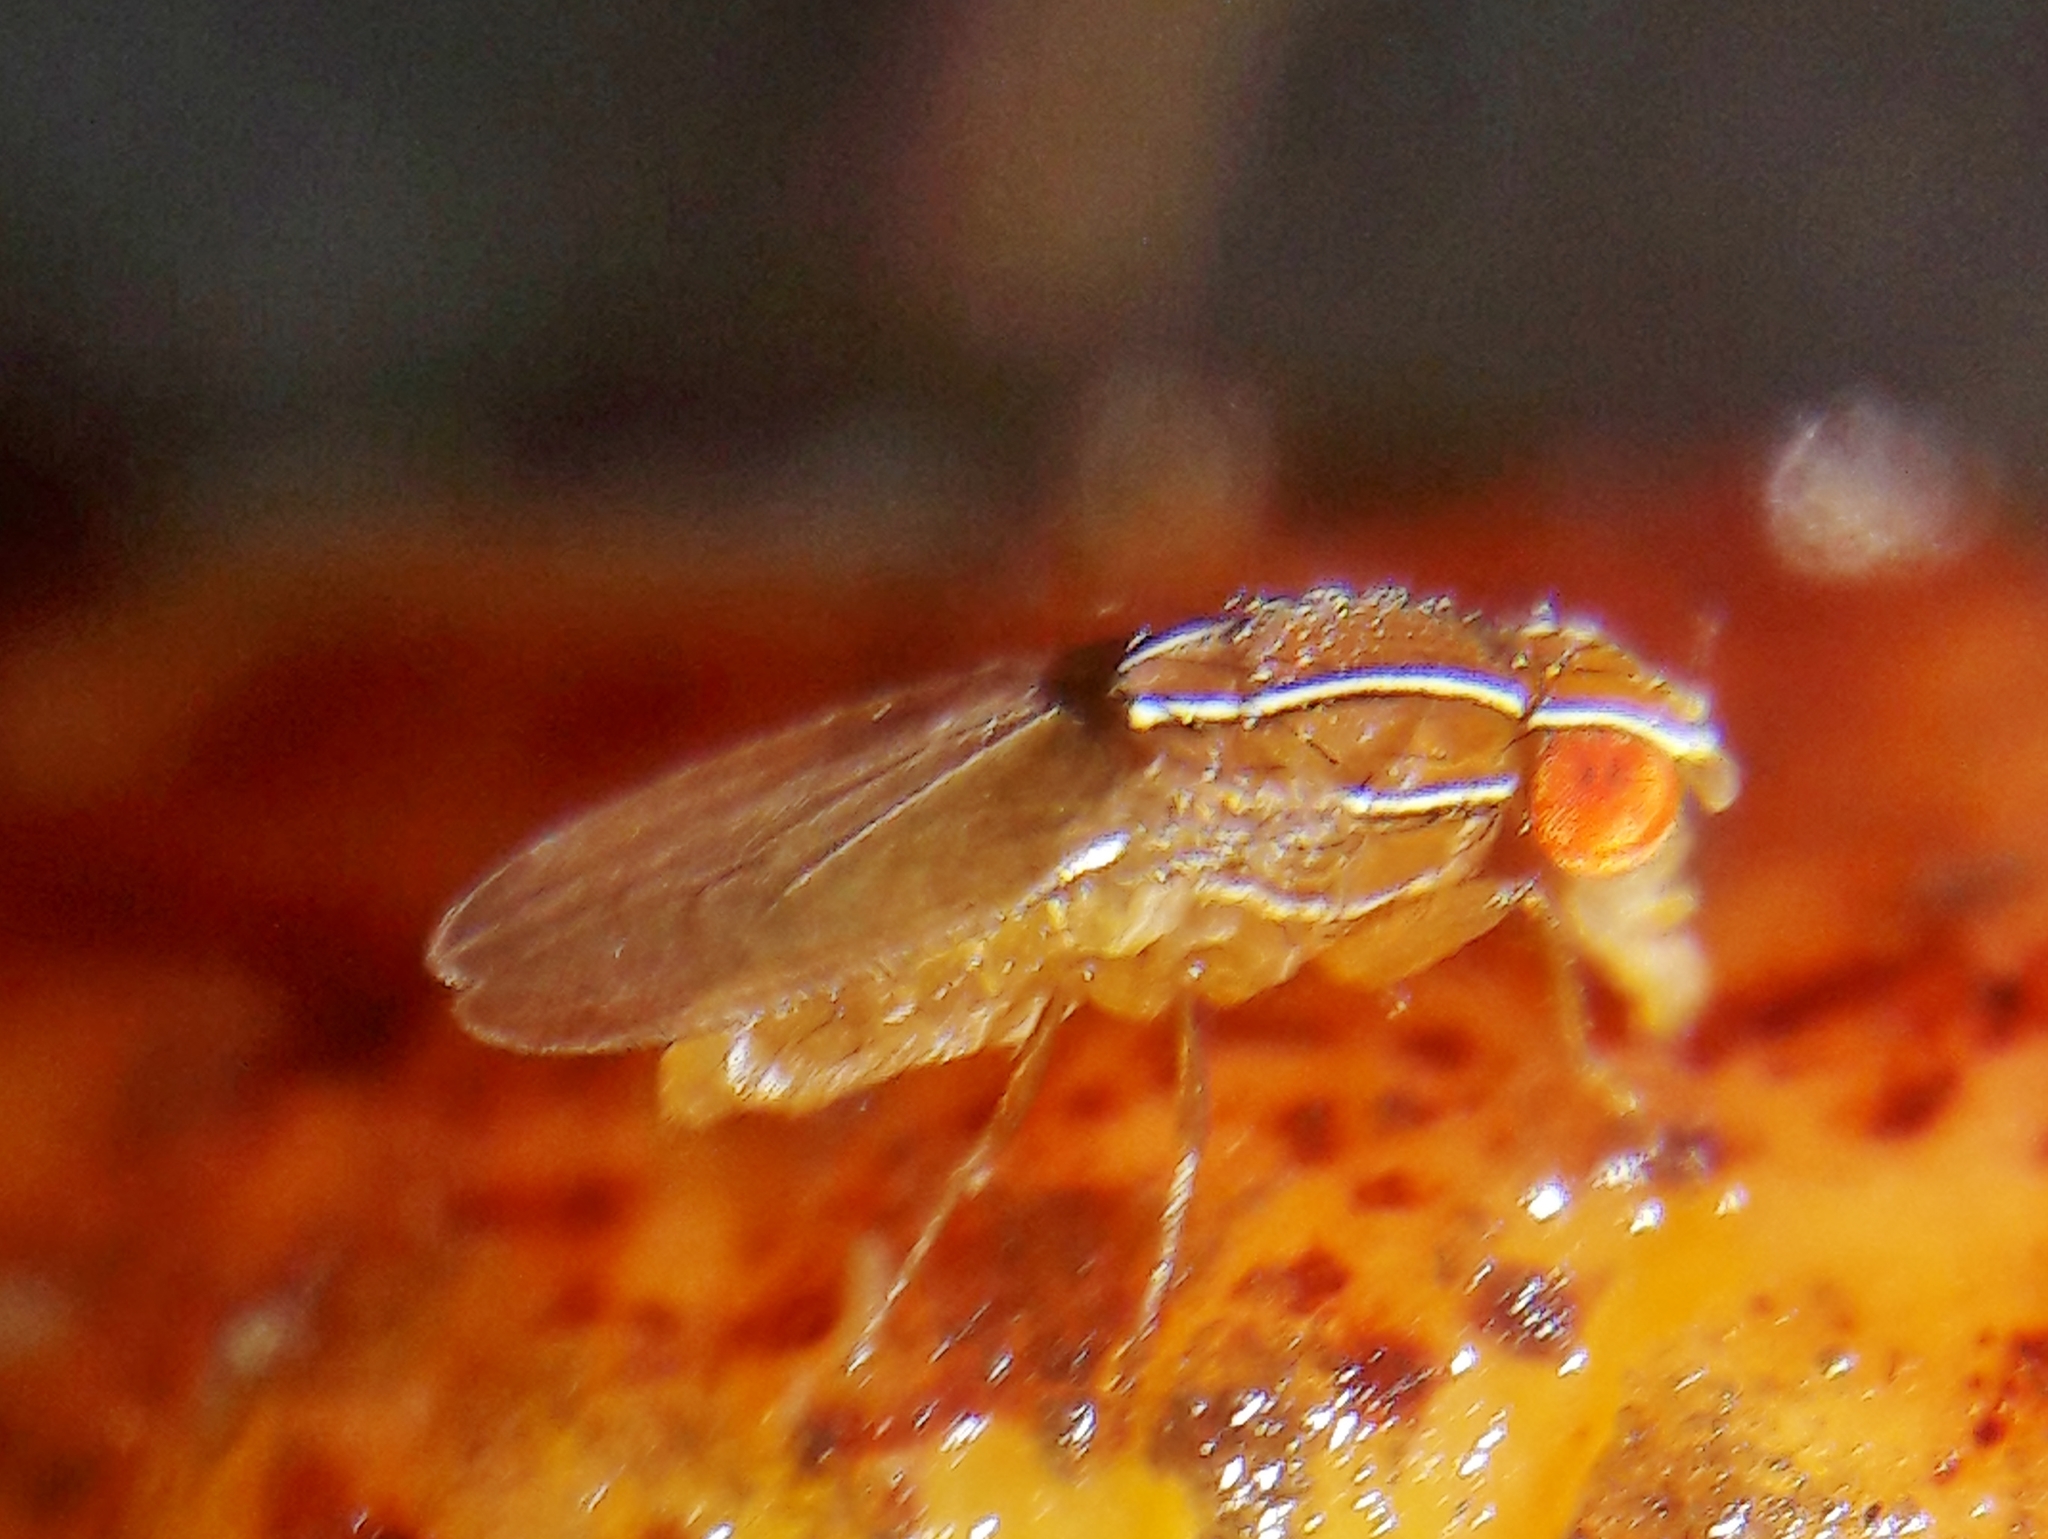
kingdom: Animalia
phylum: Arthropoda
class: Insecta
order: Diptera
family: Drosophilidae
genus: Zaprionus
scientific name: Zaprionus indianus
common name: African fig fly
